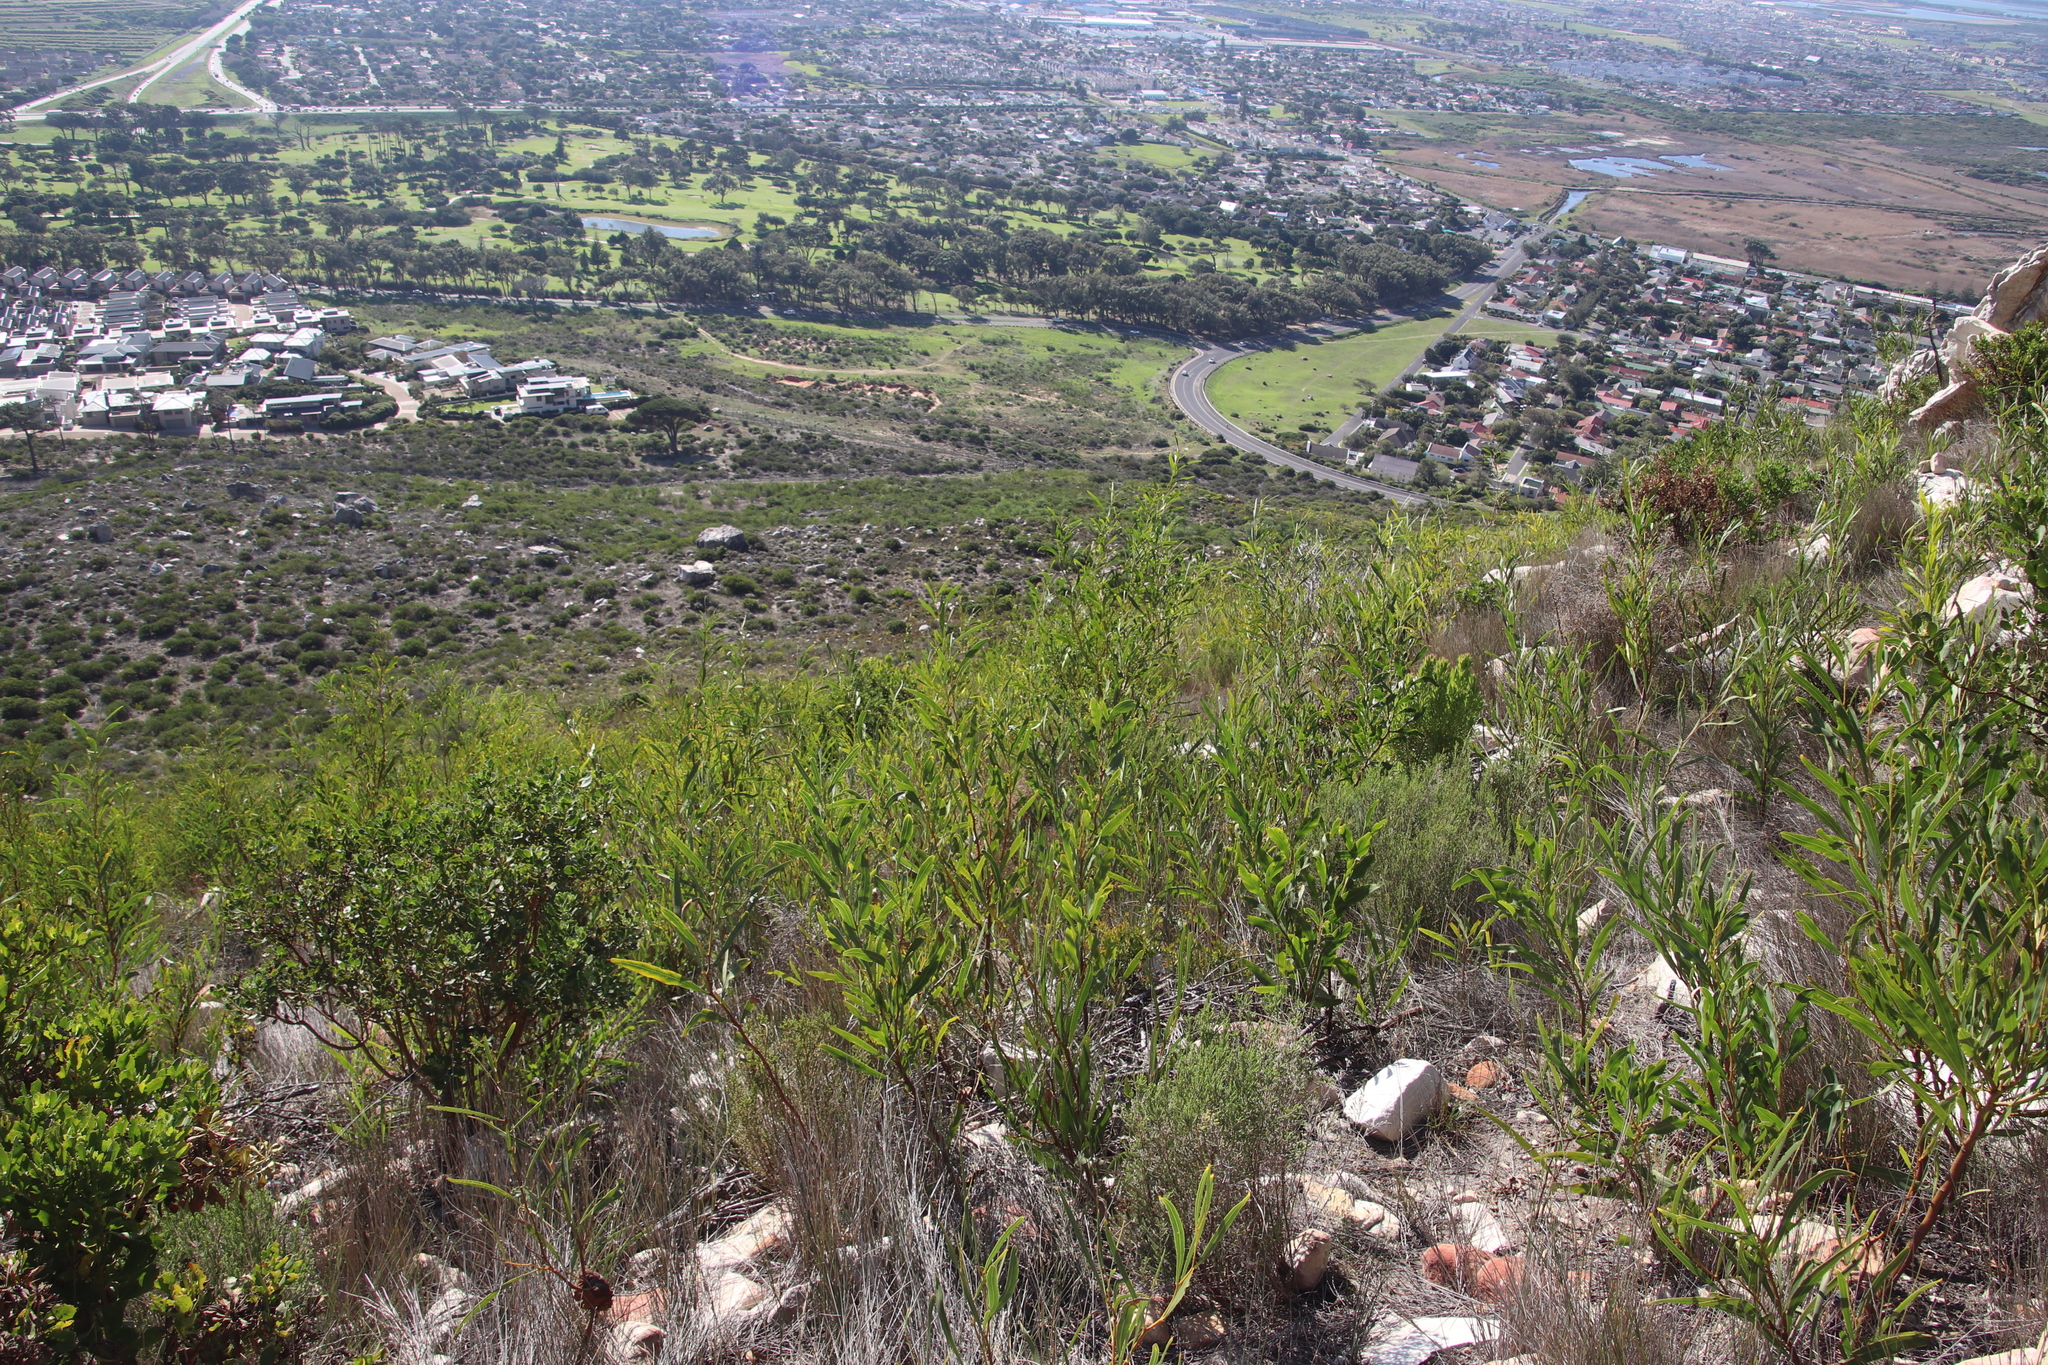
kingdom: Plantae
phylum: Tracheophyta
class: Magnoliopsida
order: Fabales
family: Fabaceae
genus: Acacia
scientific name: Acacia saligna
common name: Orange wattle
